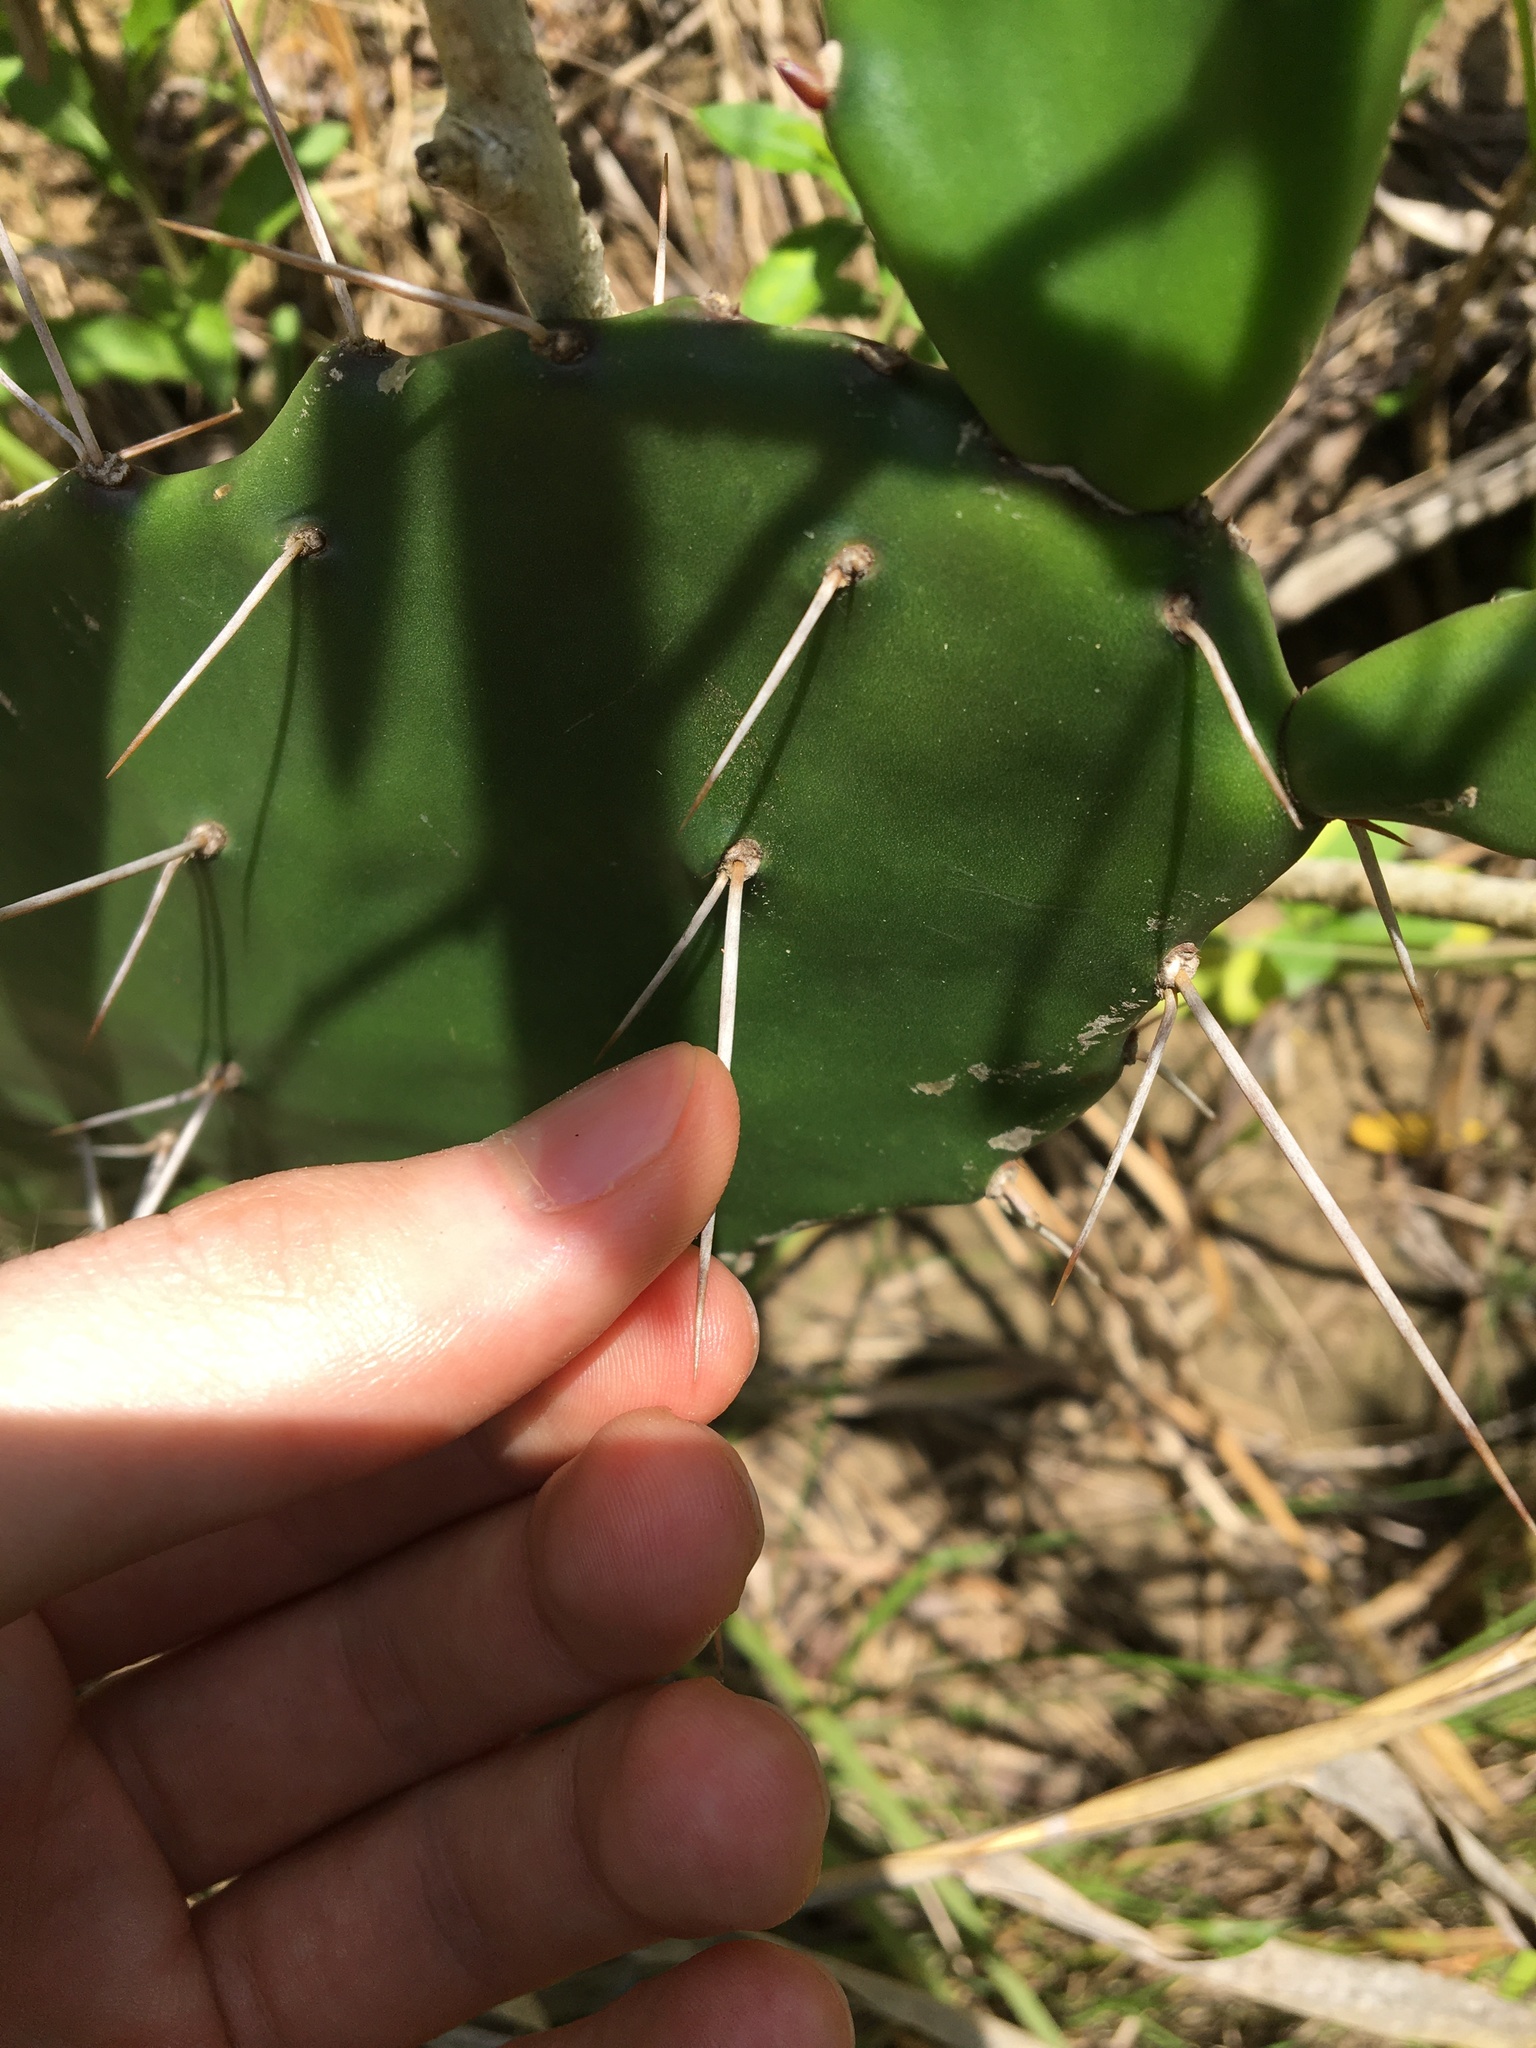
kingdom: Plantae
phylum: Tracheophyta
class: Magnoliopsida
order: Caryophyllales
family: Cactaceae
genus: Opuntia
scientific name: Opuntia monacantha
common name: Common pricklypear
